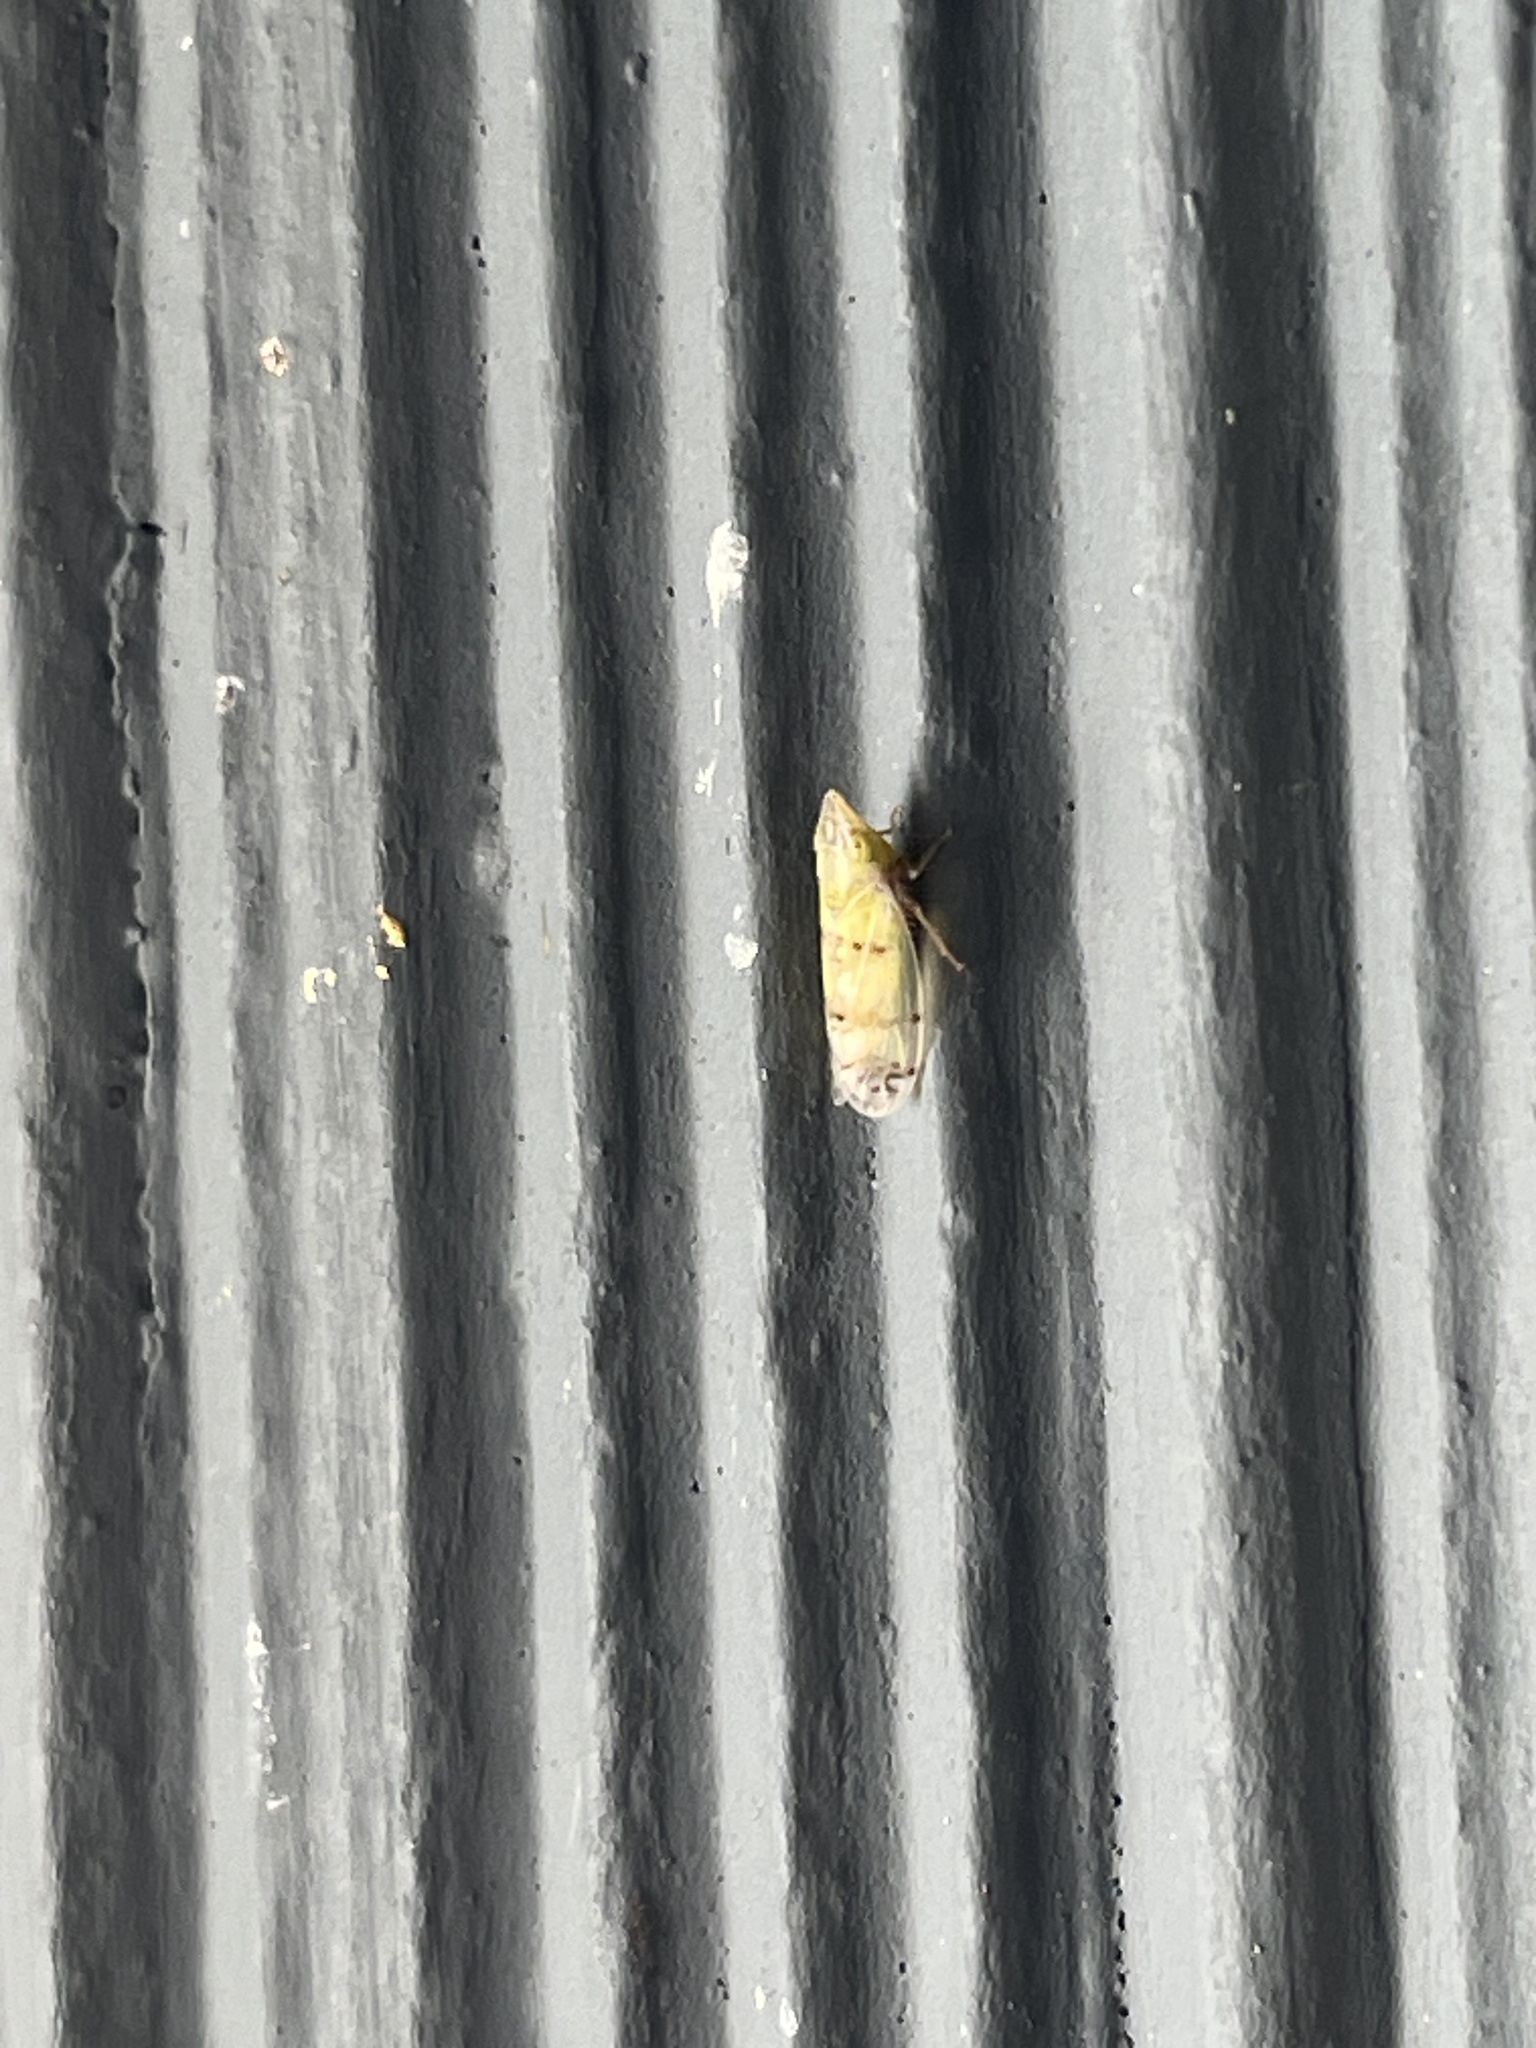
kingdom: Animalia
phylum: Arthropoda
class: Insecta
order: Hemiptera
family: Cicadellidae
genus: Japananus
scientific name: Japananus hyalinus
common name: The japanese maple leafhopper
